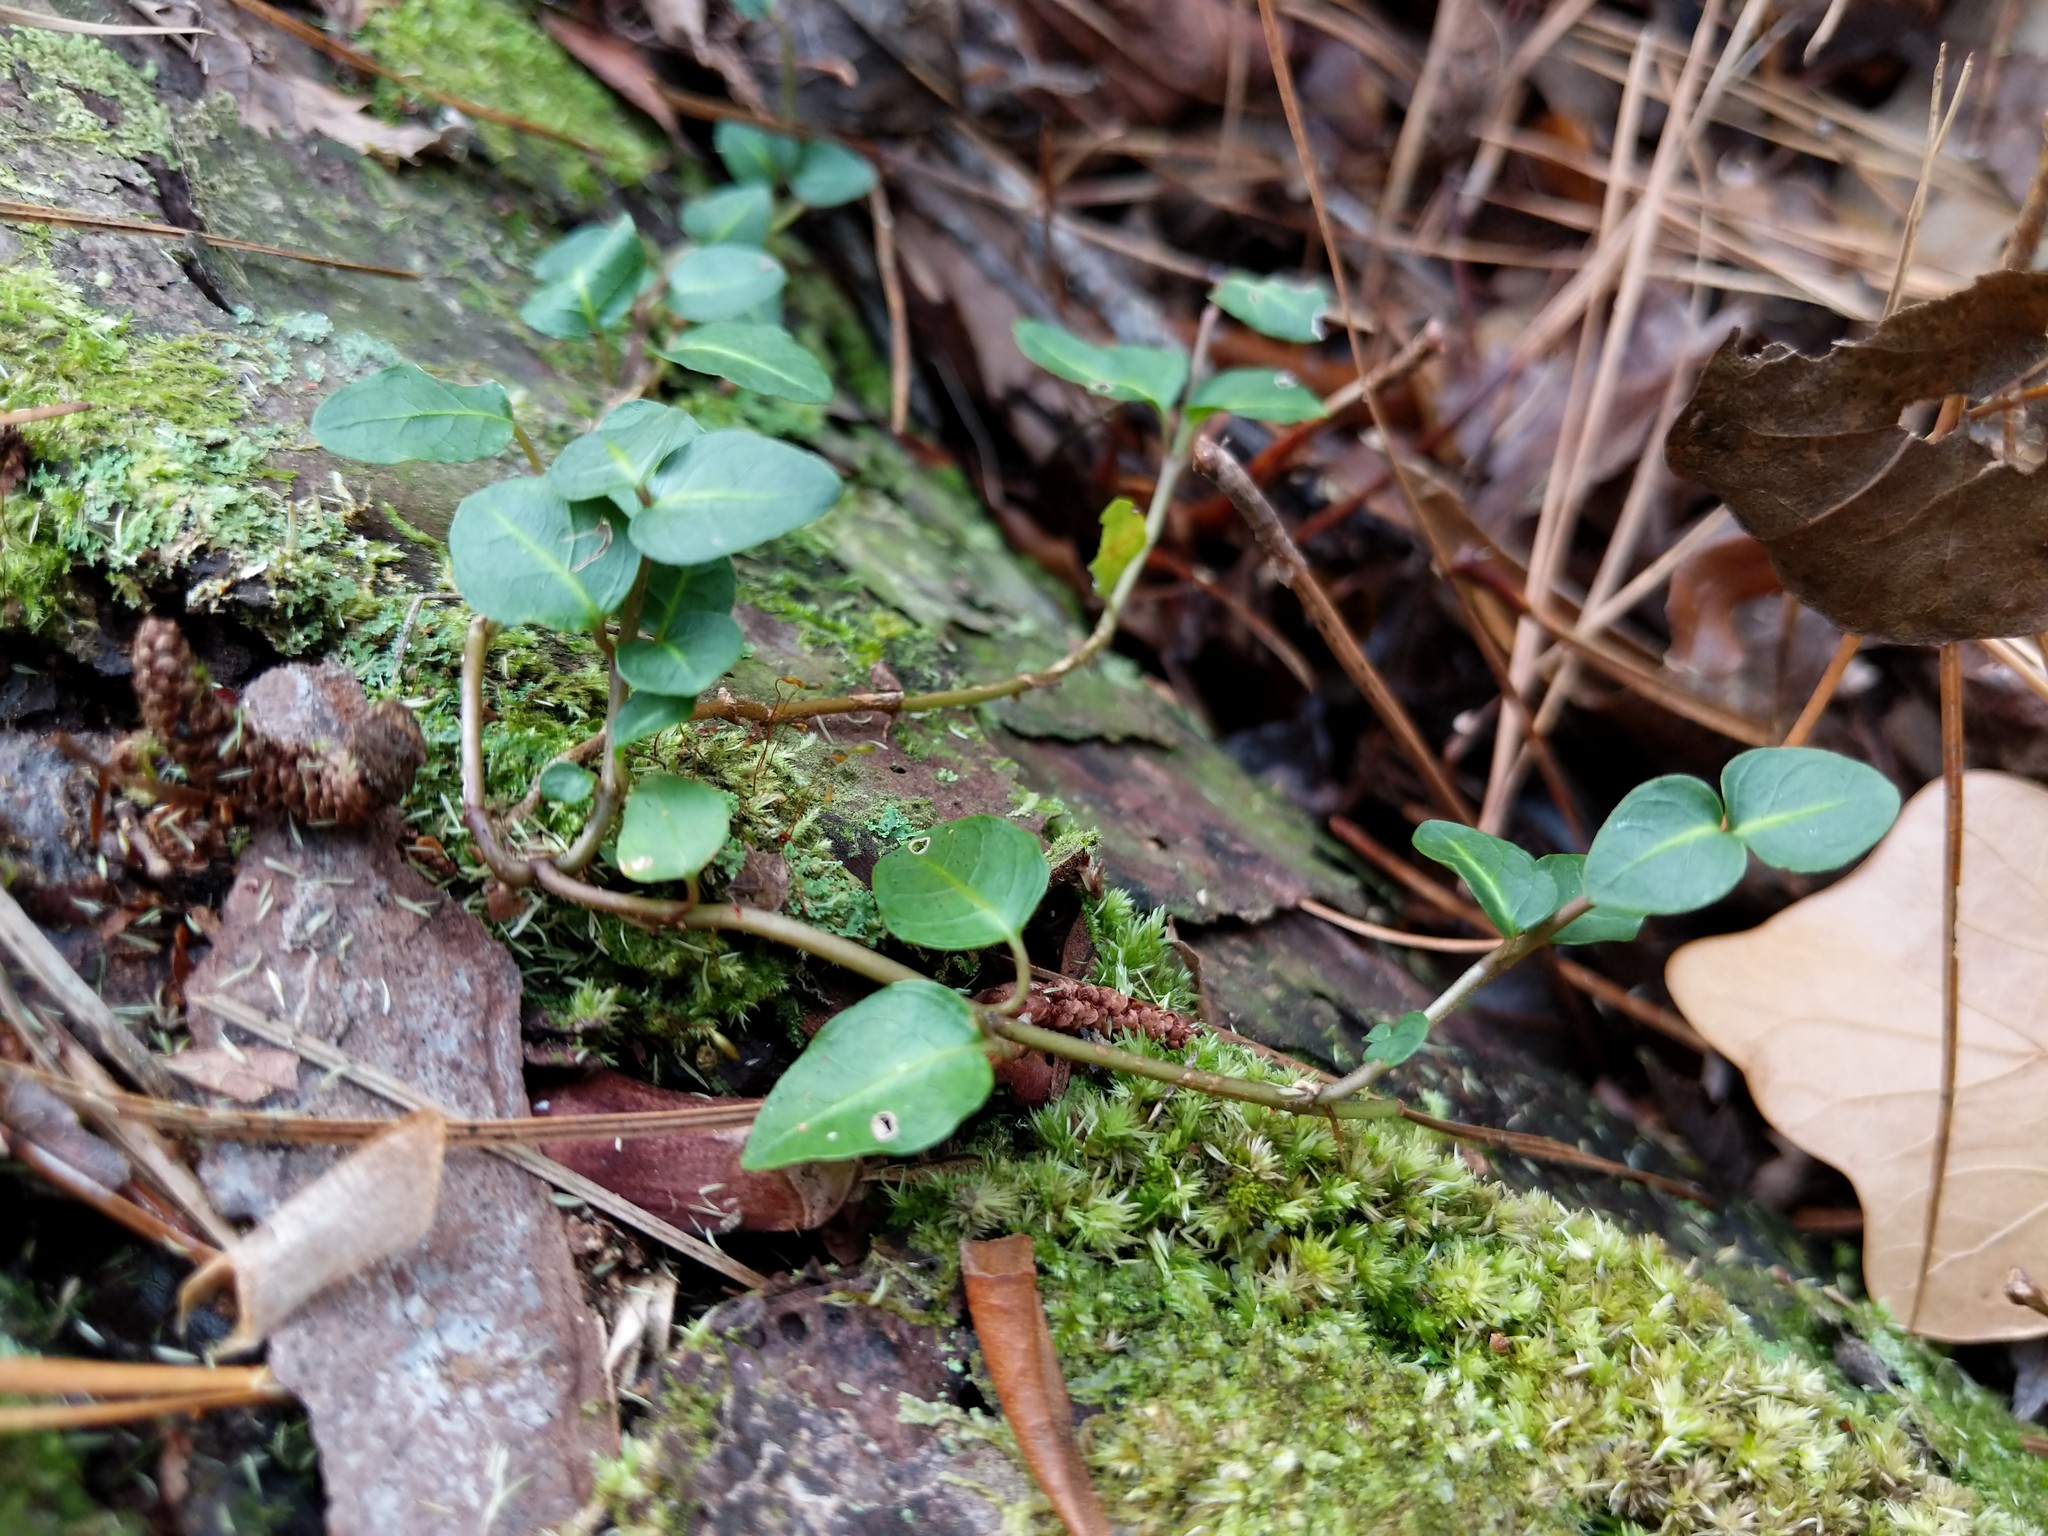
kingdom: Plantae
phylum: Tracheophyta
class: Magnoliopsida
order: Gentianales
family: Rubiaceae
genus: Mitchella
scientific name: Mitchella repens
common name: Partridge-berry
